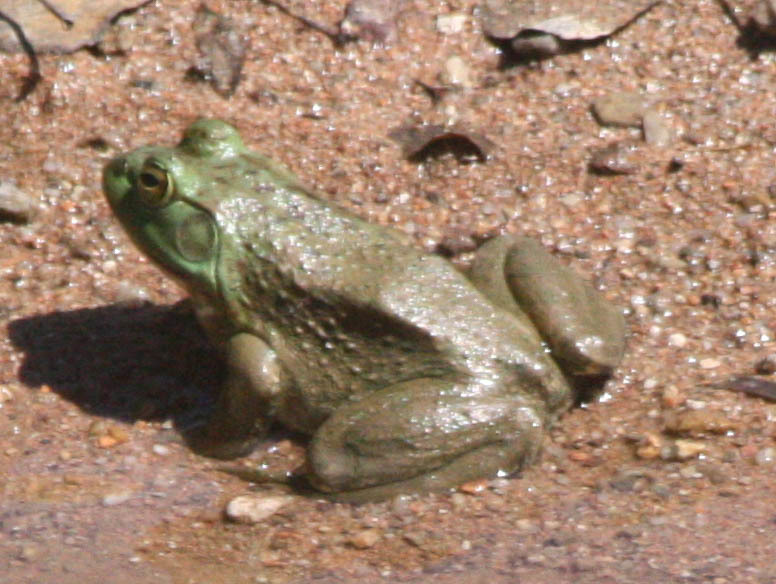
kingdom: Animalia
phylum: Chordata
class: Amphibia
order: Anura
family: Ranidae
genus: Lithobates
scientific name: Lithobates catesbeianus
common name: American bullfrog
